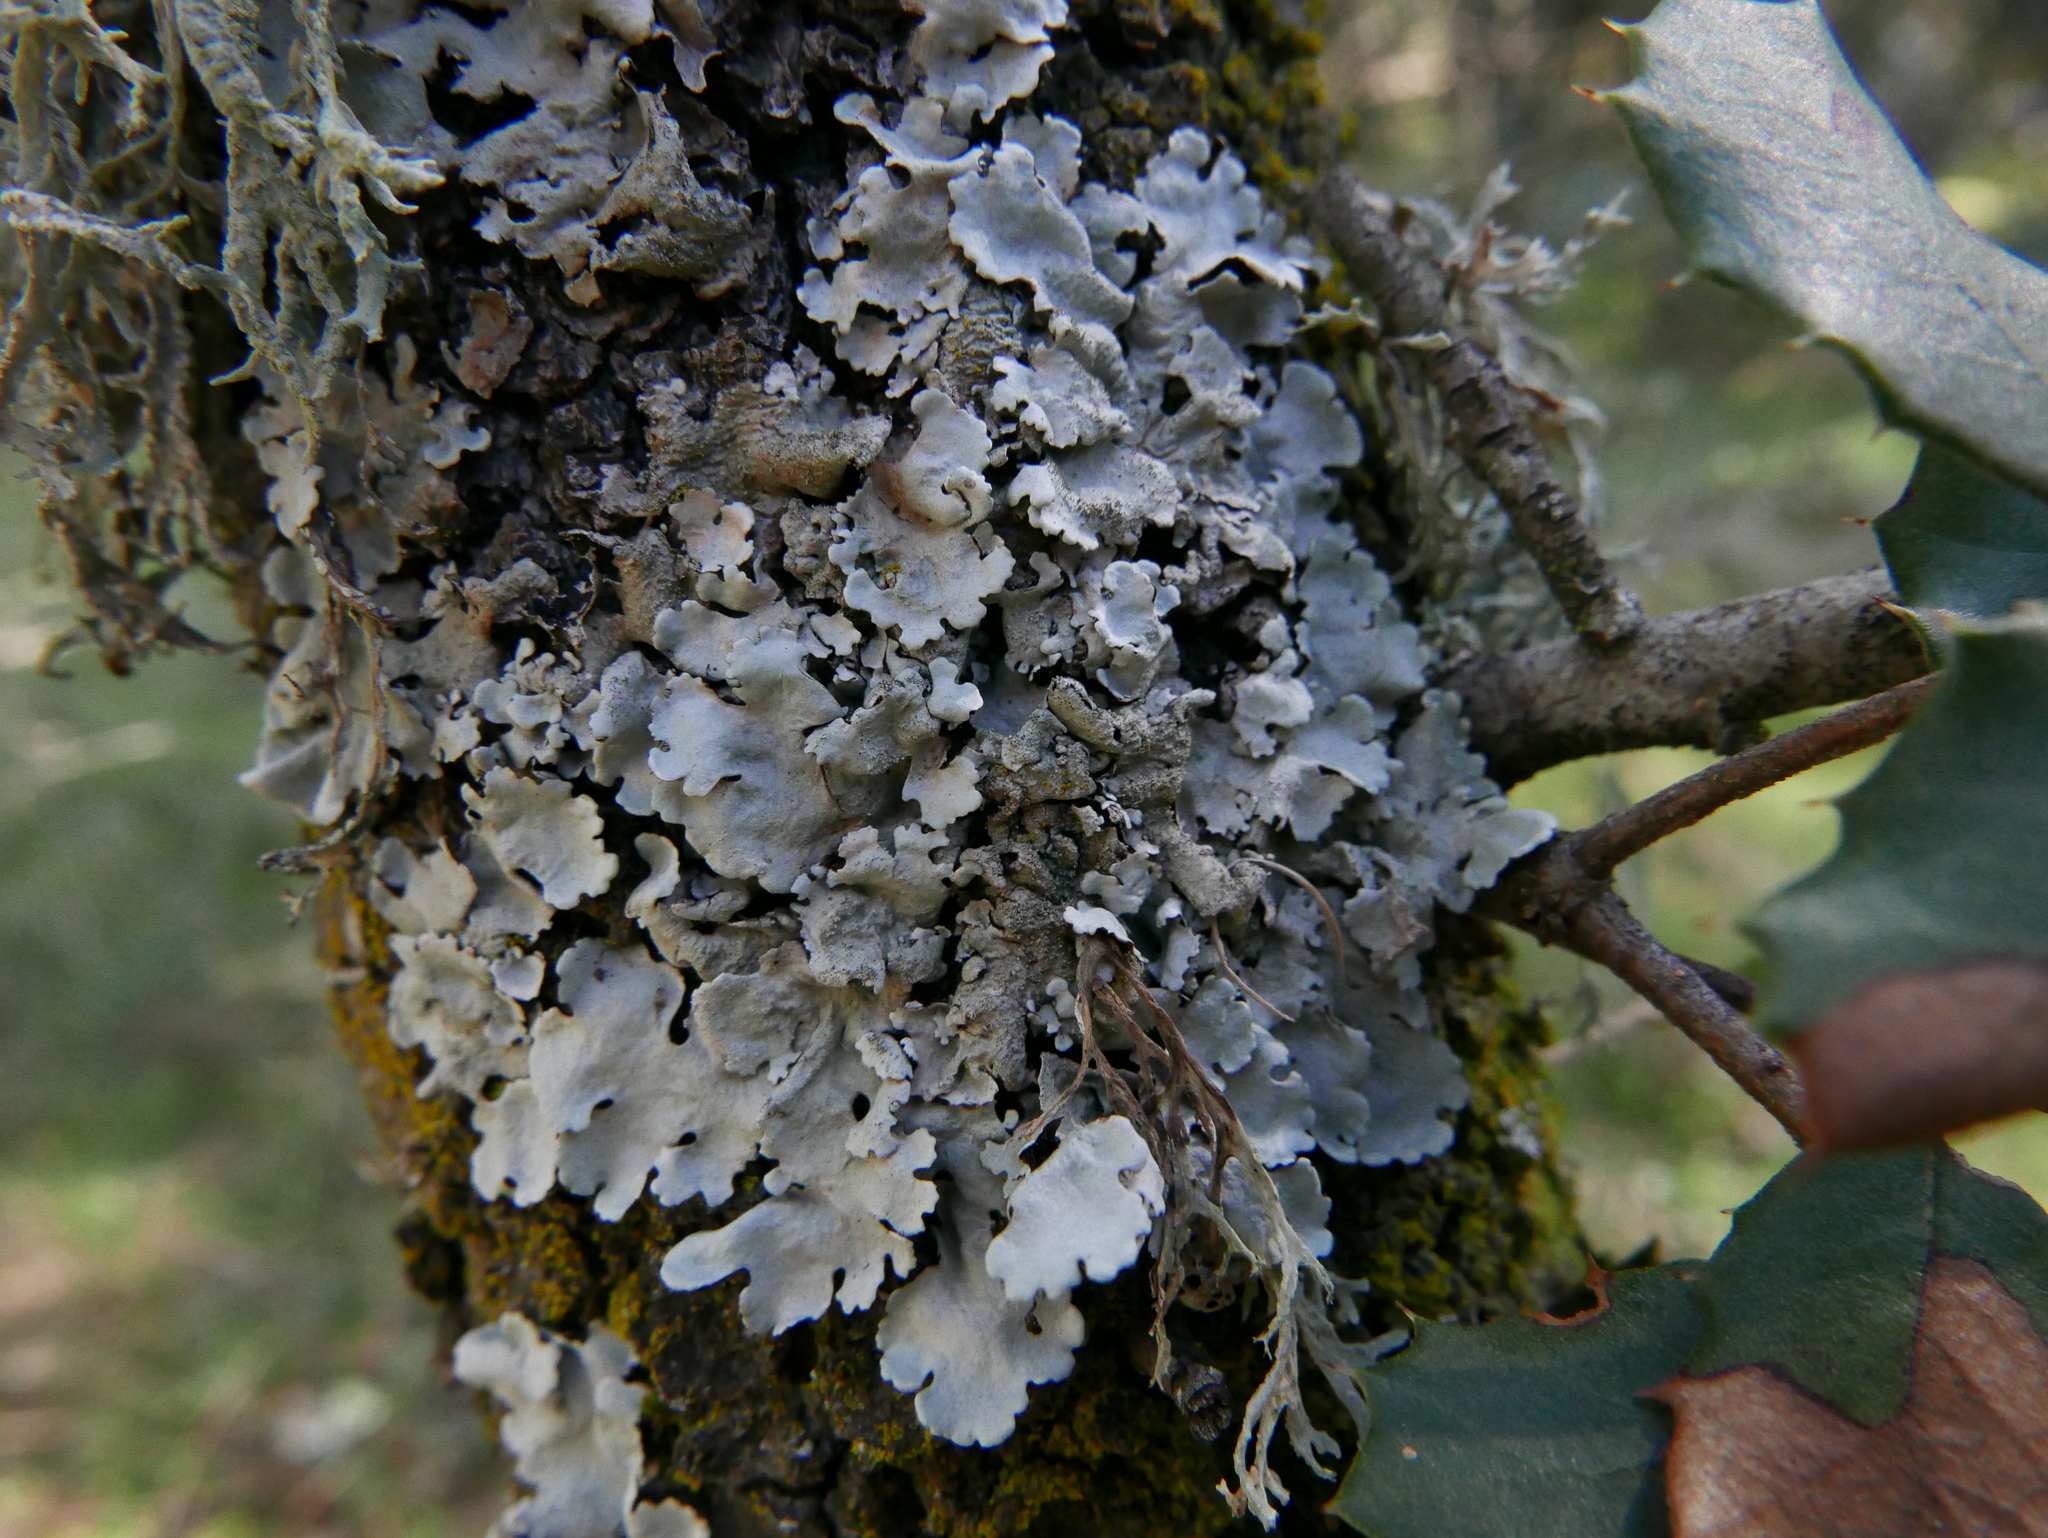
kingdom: Fungi
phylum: Ascomycota
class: Lecanoromycetes
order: Lecanorales
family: Parmeliaceae
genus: Parmelina
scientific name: Parmelina tiliacea
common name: Linden shield lichen
